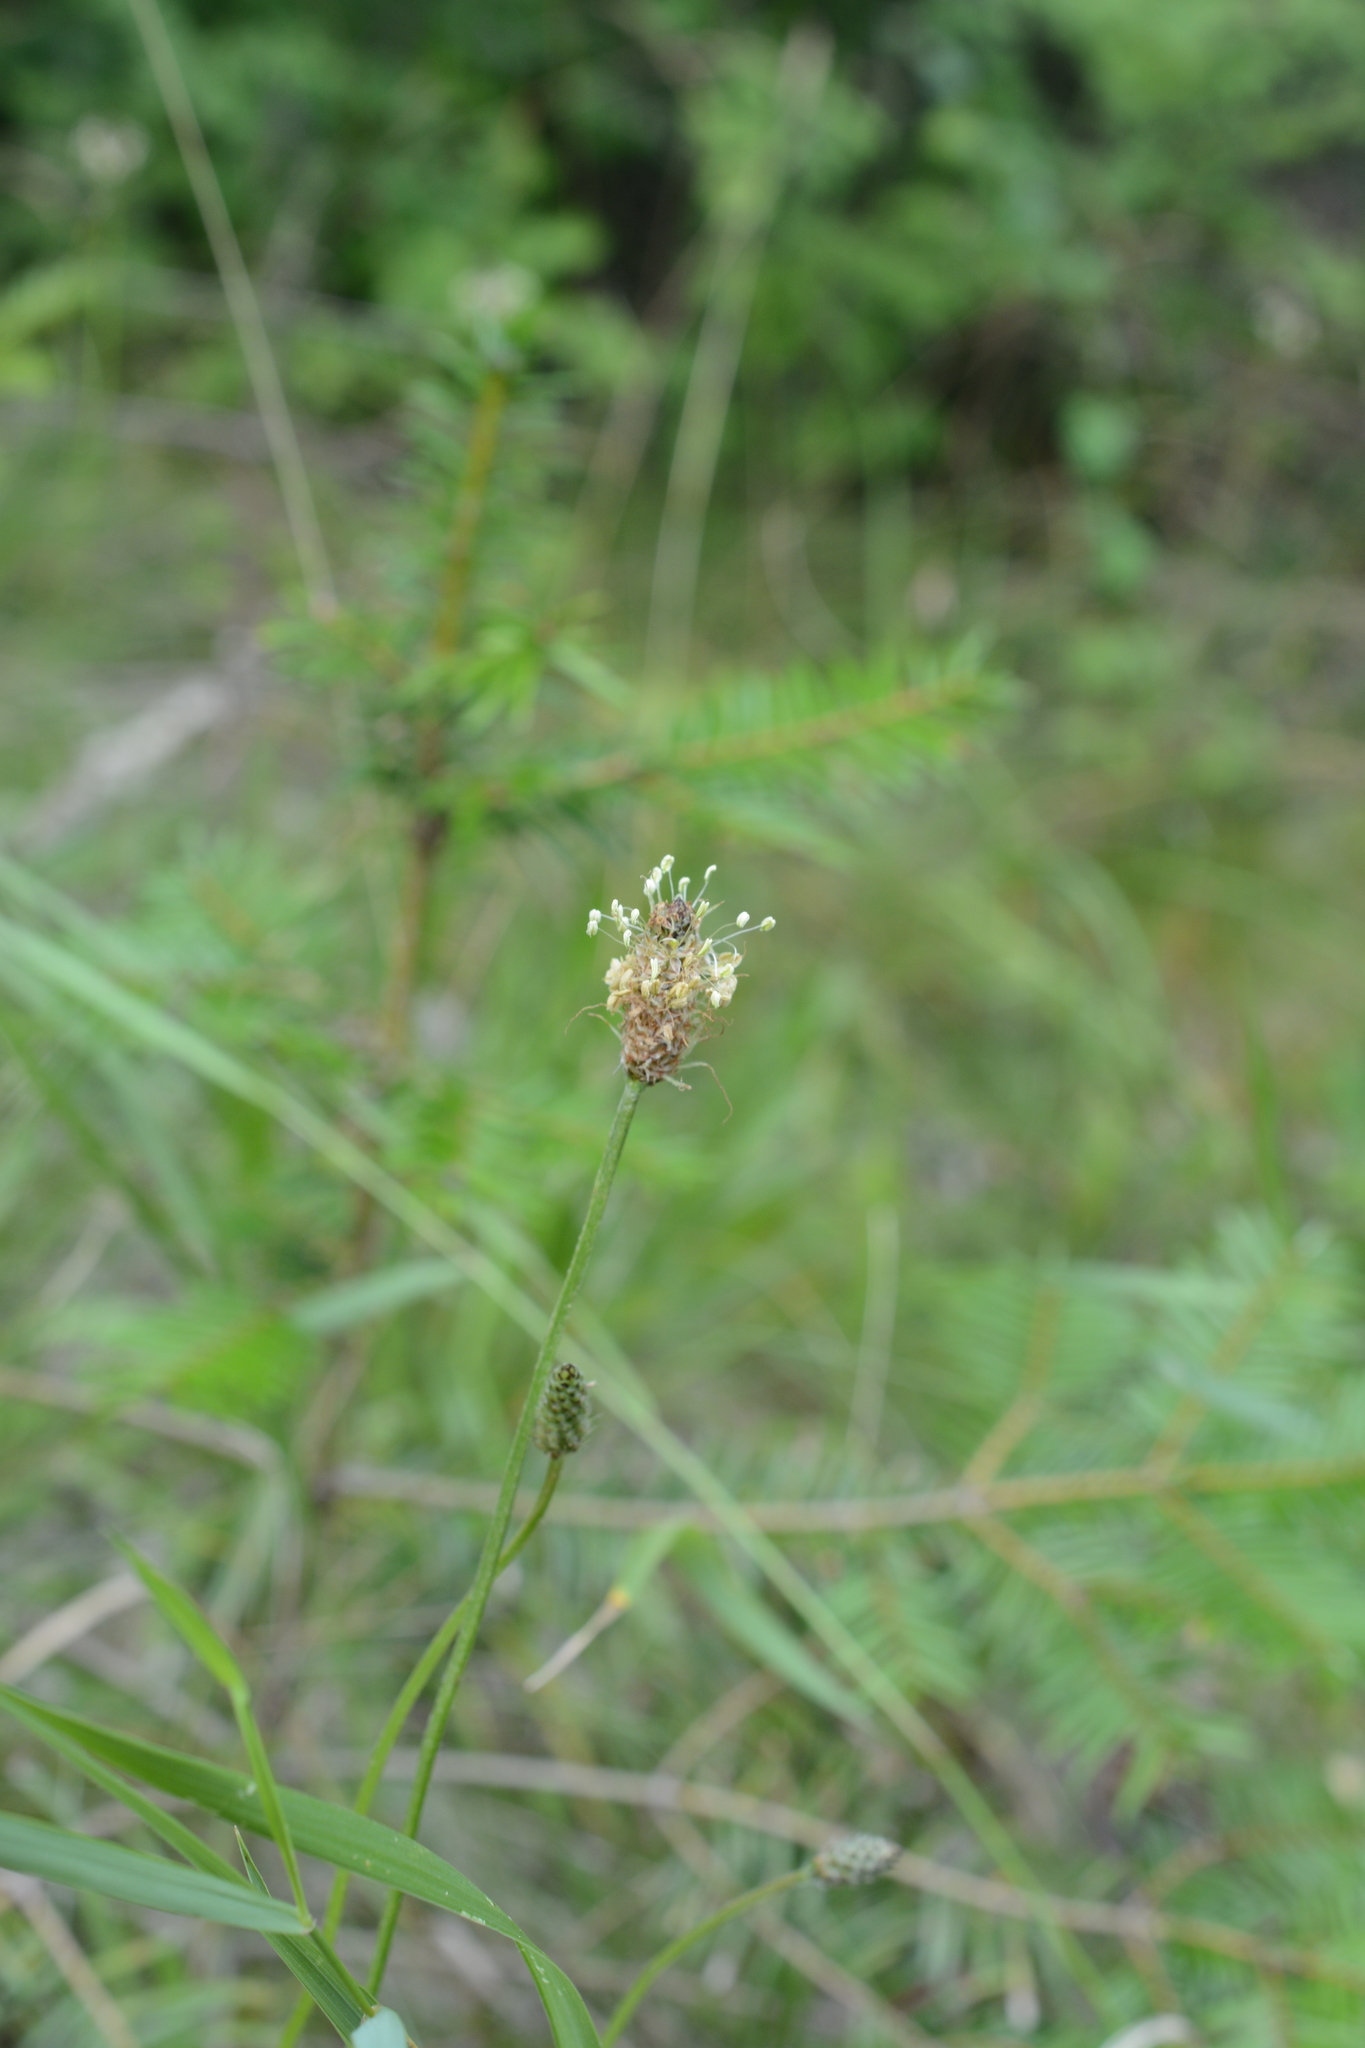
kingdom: Plantae
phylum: Tracheophyta
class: Magnoliopsida
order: Lamiales
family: Plantaginaceae
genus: Plantago
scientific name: Plantago lanceolata
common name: Ribwort plantain
